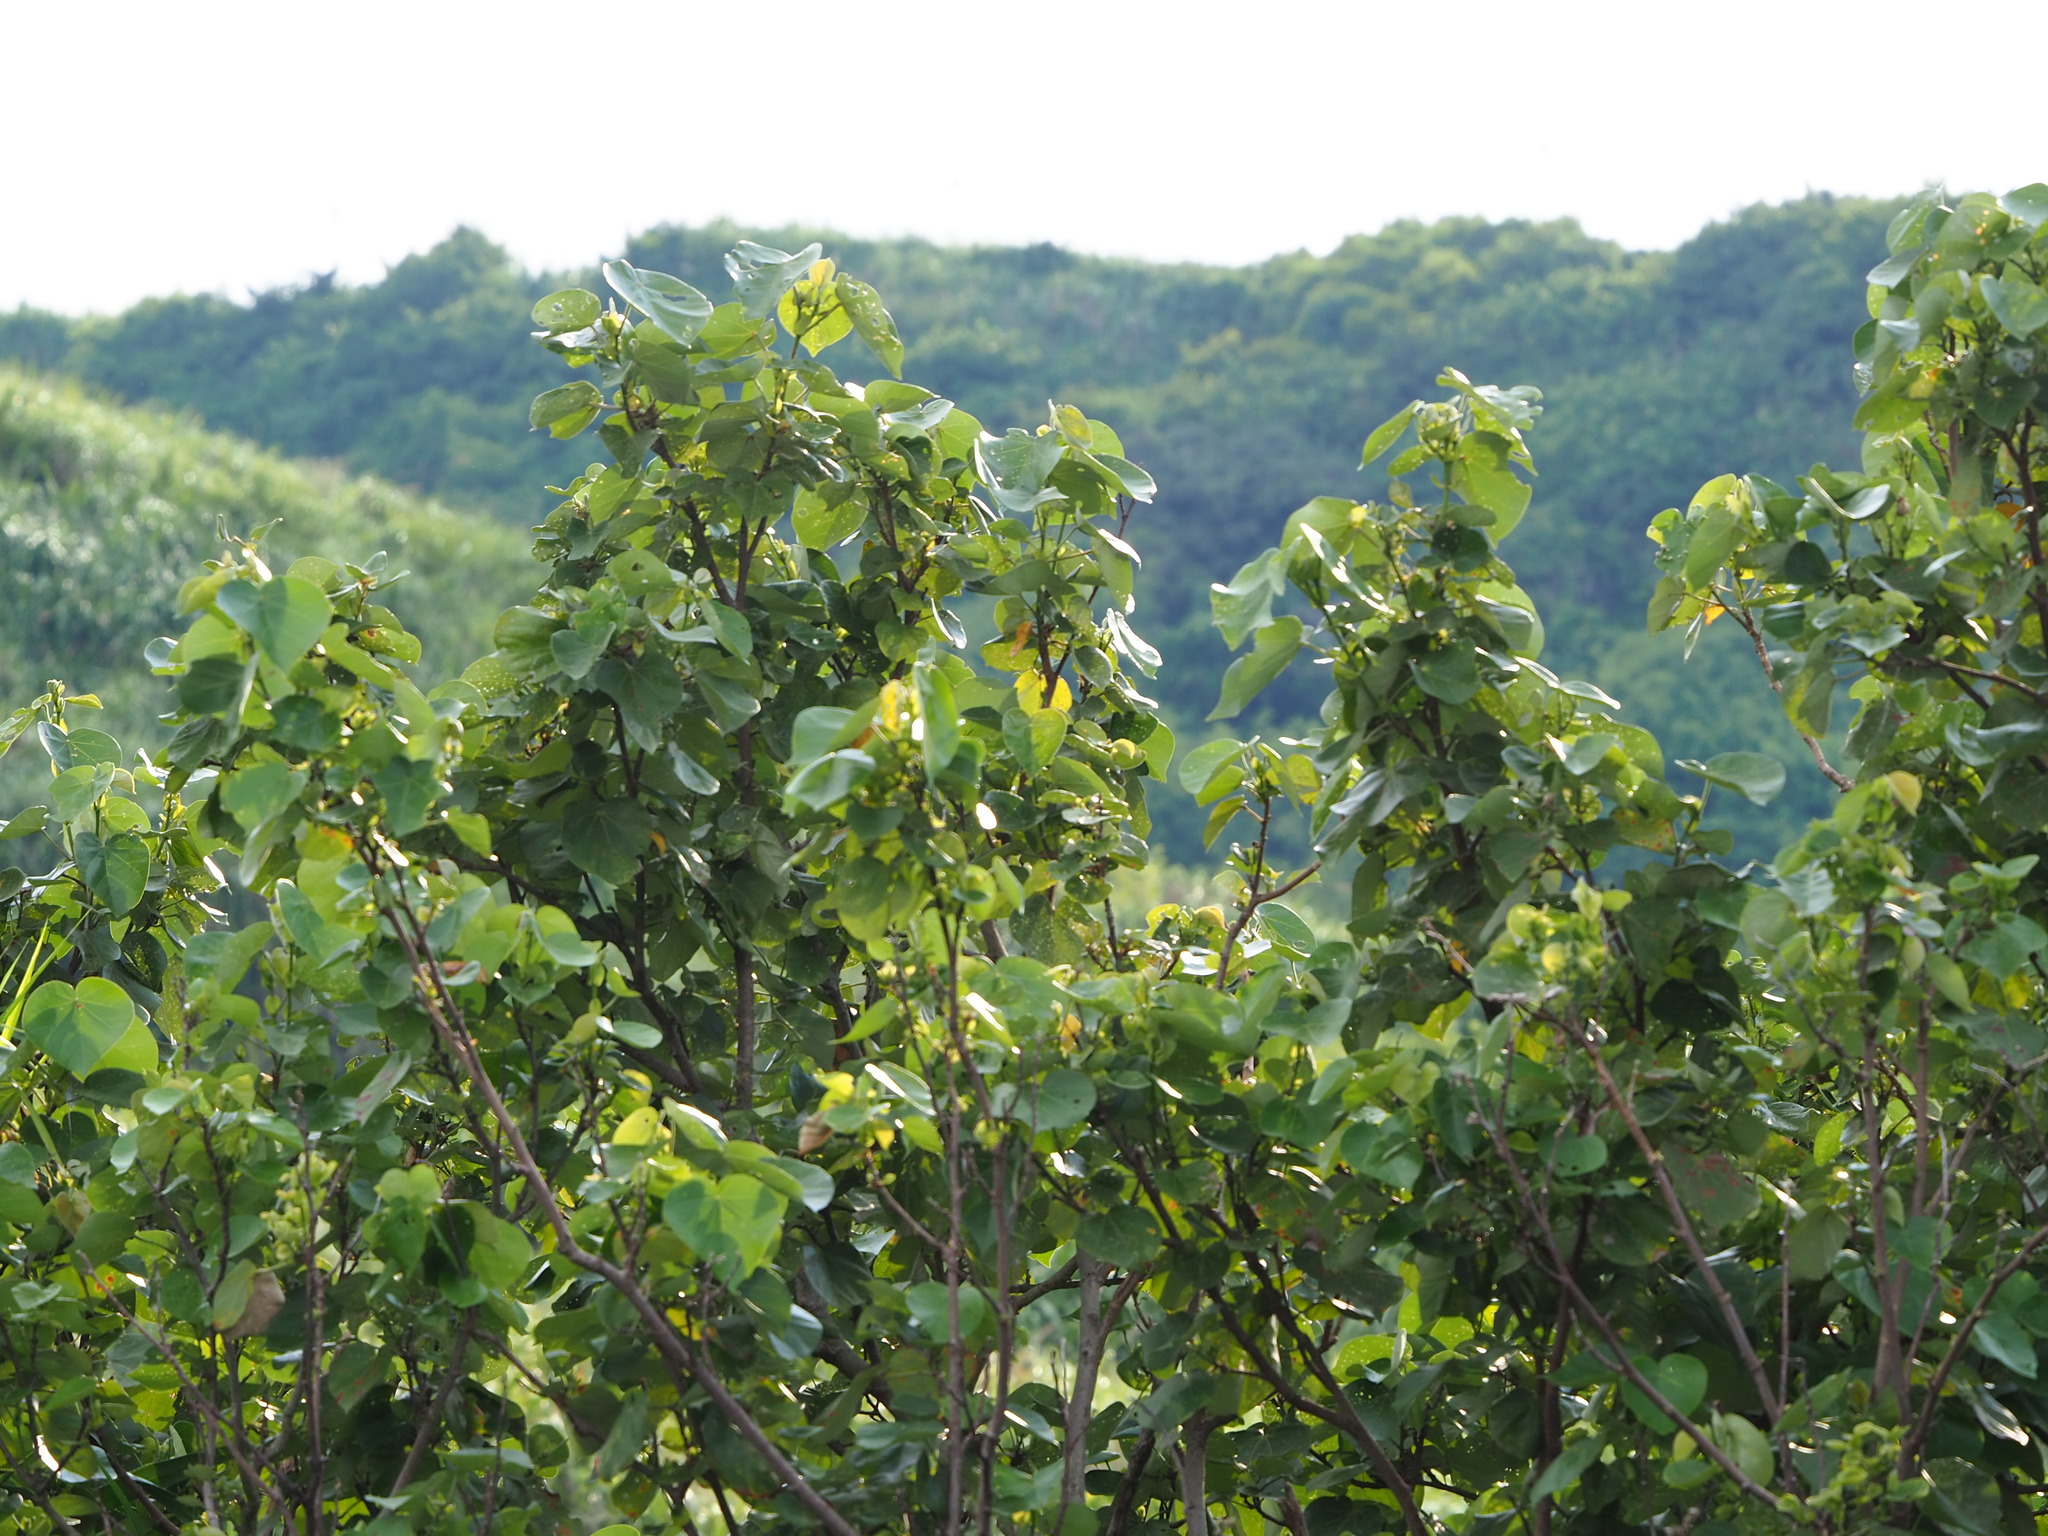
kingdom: Plantae
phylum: Tracheophyta
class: Magnoliopsida
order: Malvales
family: Malvaceae
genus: Talipariti
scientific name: Talipariti tiliaceum
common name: Sea hibiscus
